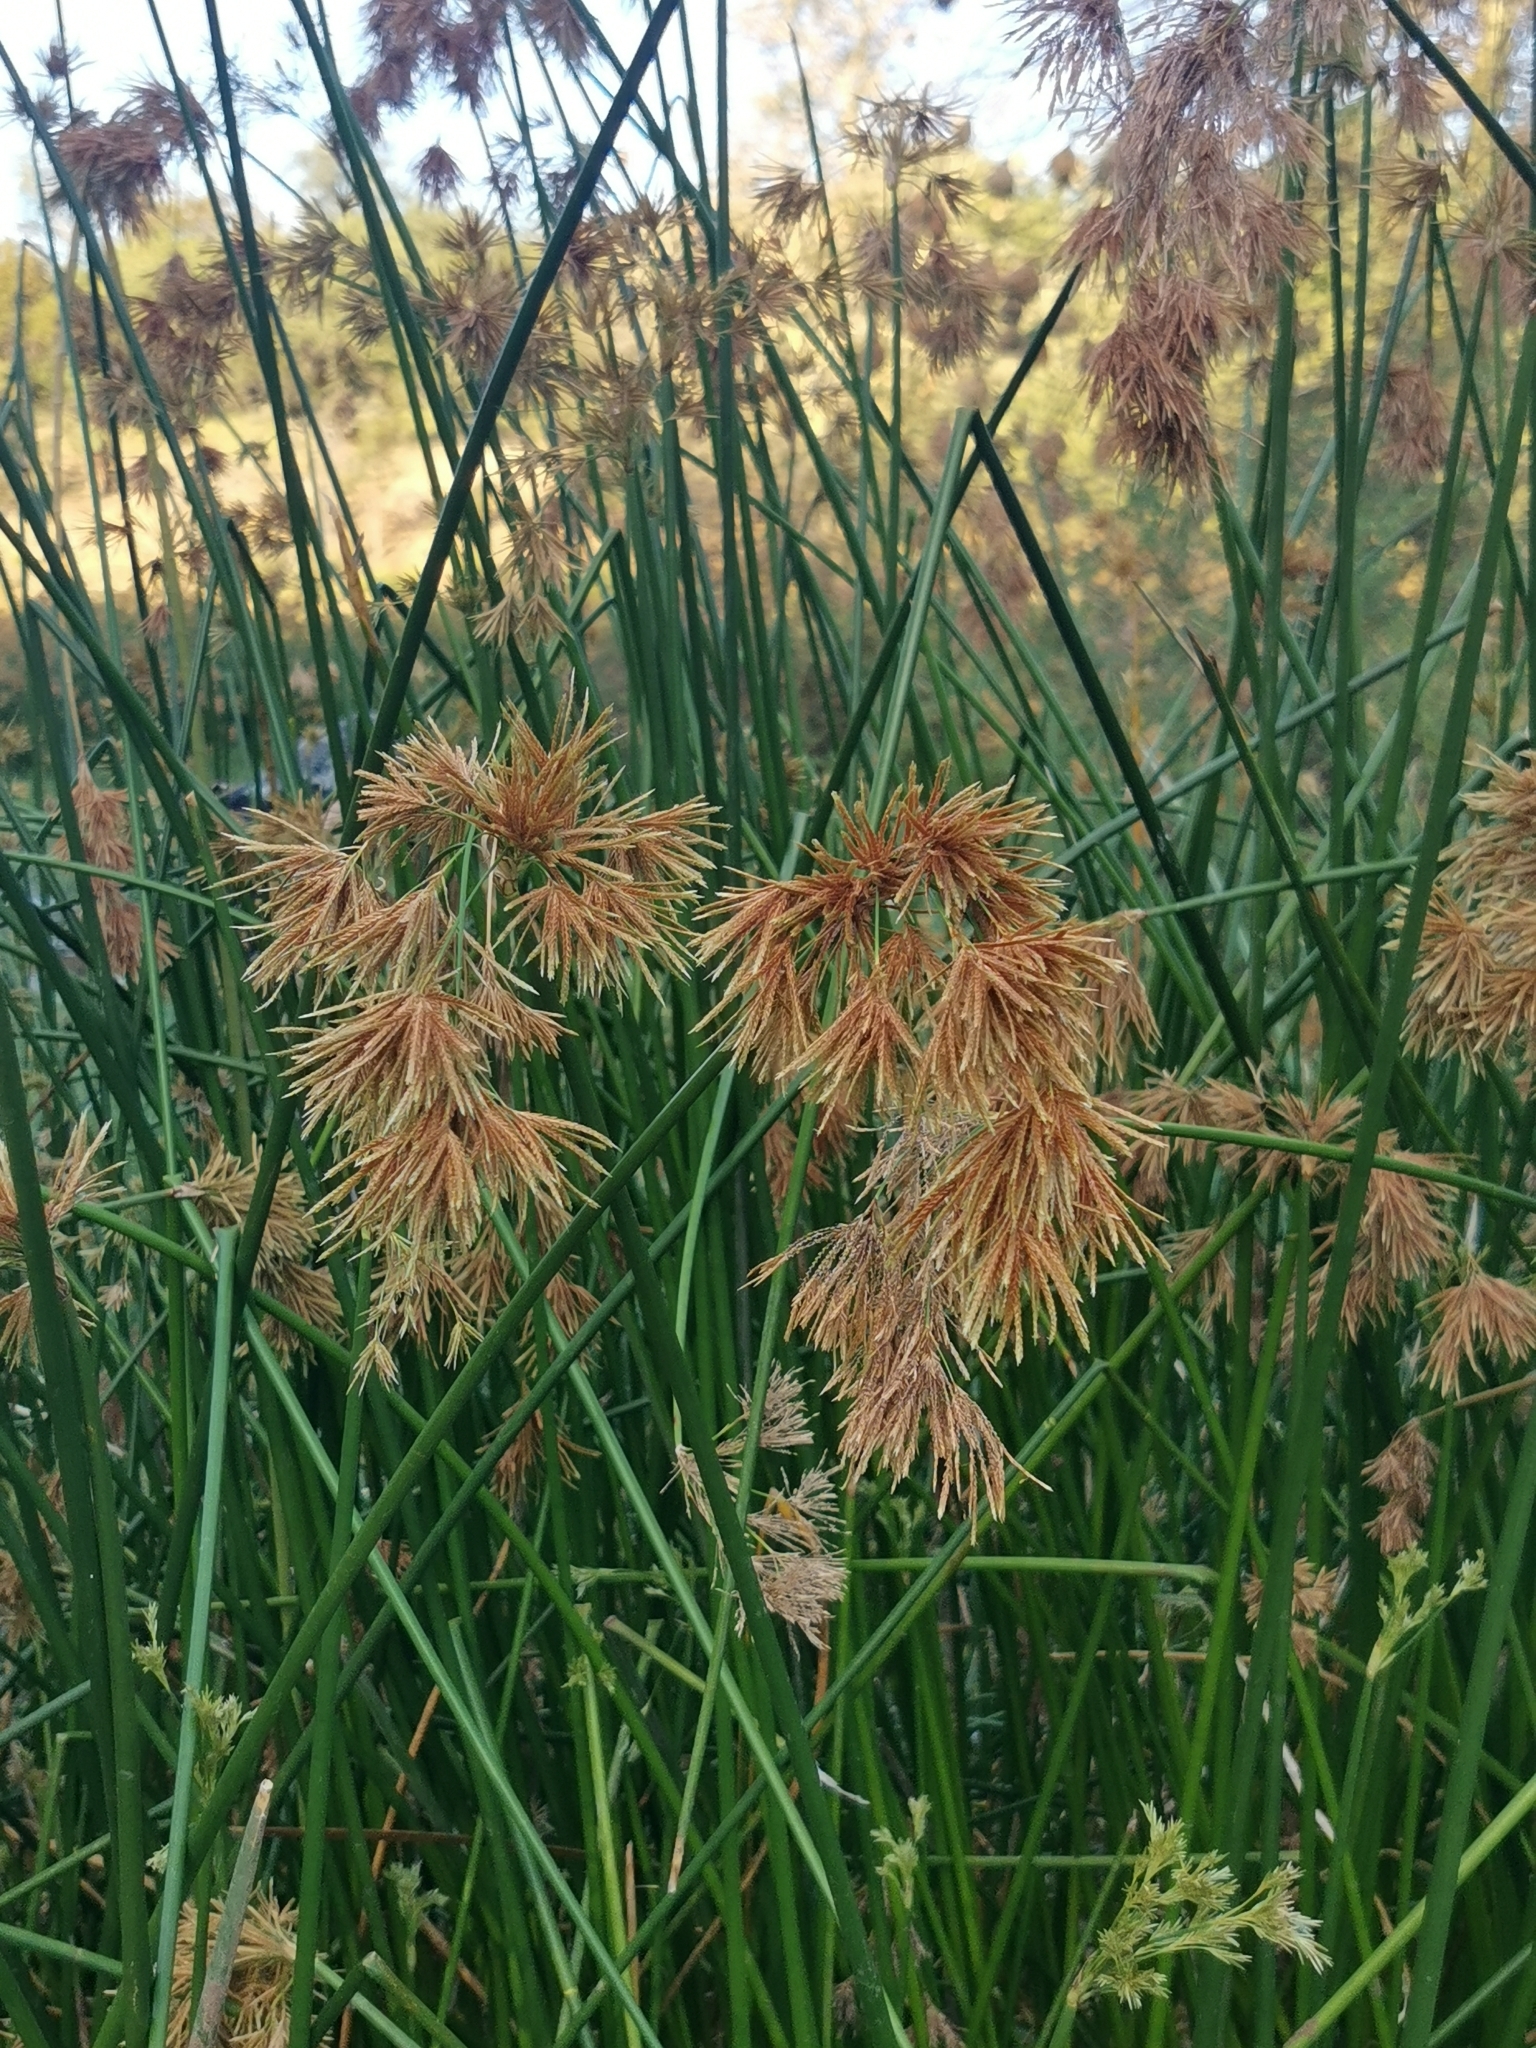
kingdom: Plantae
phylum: Tracheophyta
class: Liliopsida
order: Poales
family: Cyperaceae
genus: Cyperus
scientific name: Cyperus articulatus
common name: Jointed flatsedge
